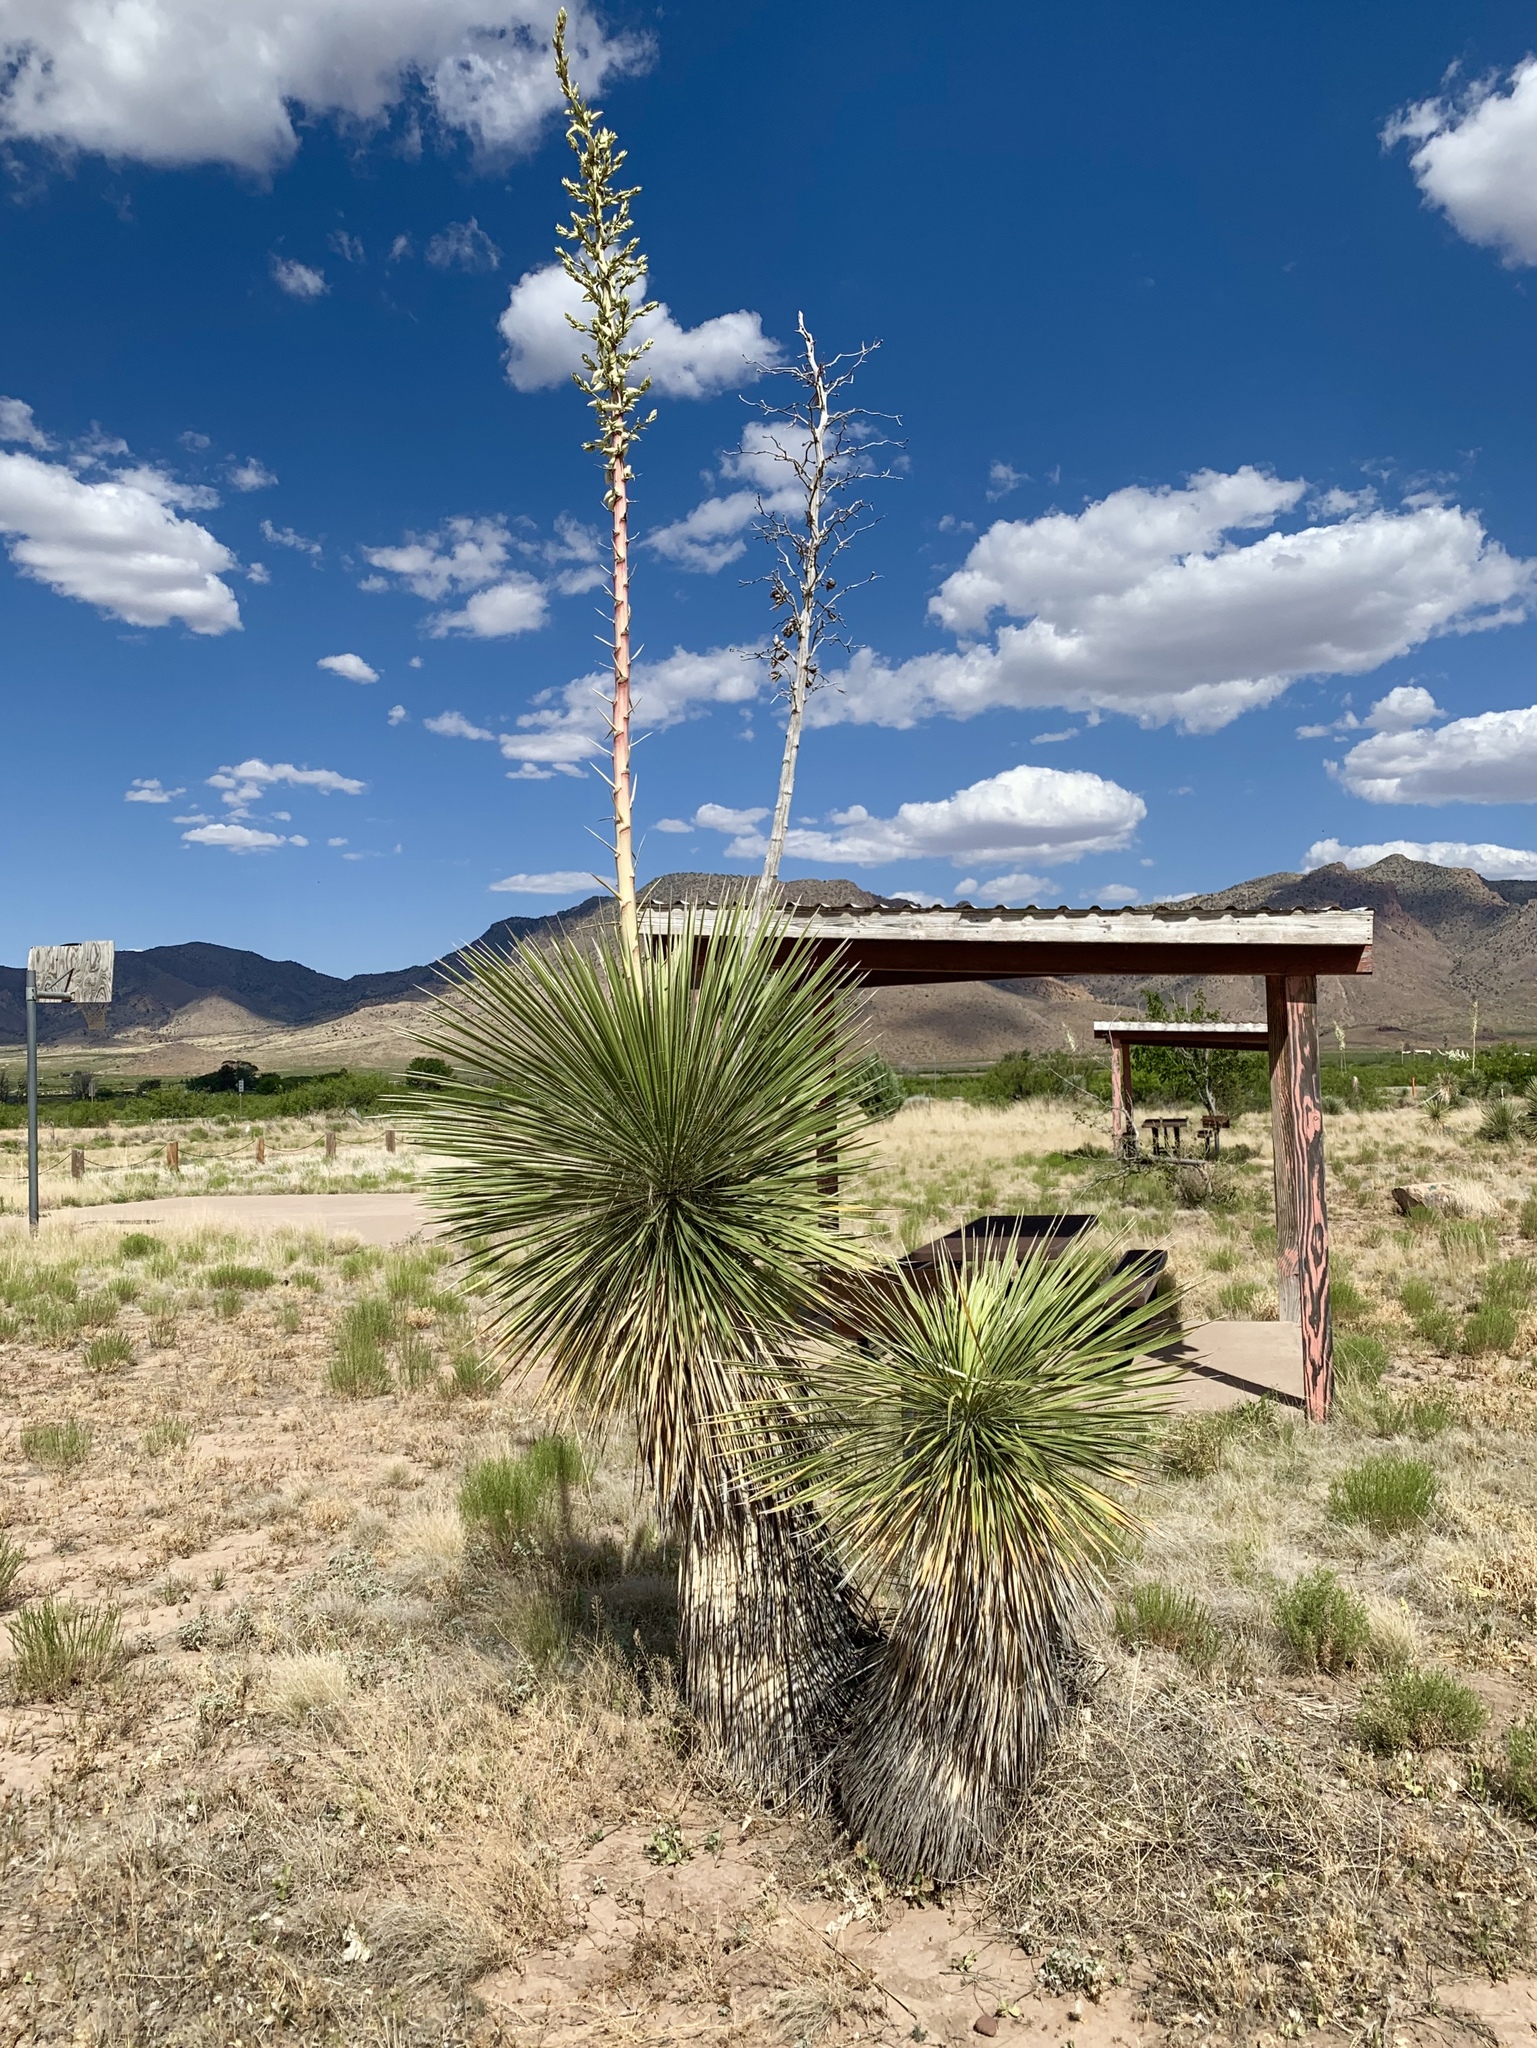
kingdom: Plantae
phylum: Tracheophyta
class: Liliopsida
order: Asparagales
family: Asparagaceae
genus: Yucca
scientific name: Yucca elata
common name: Palmella
